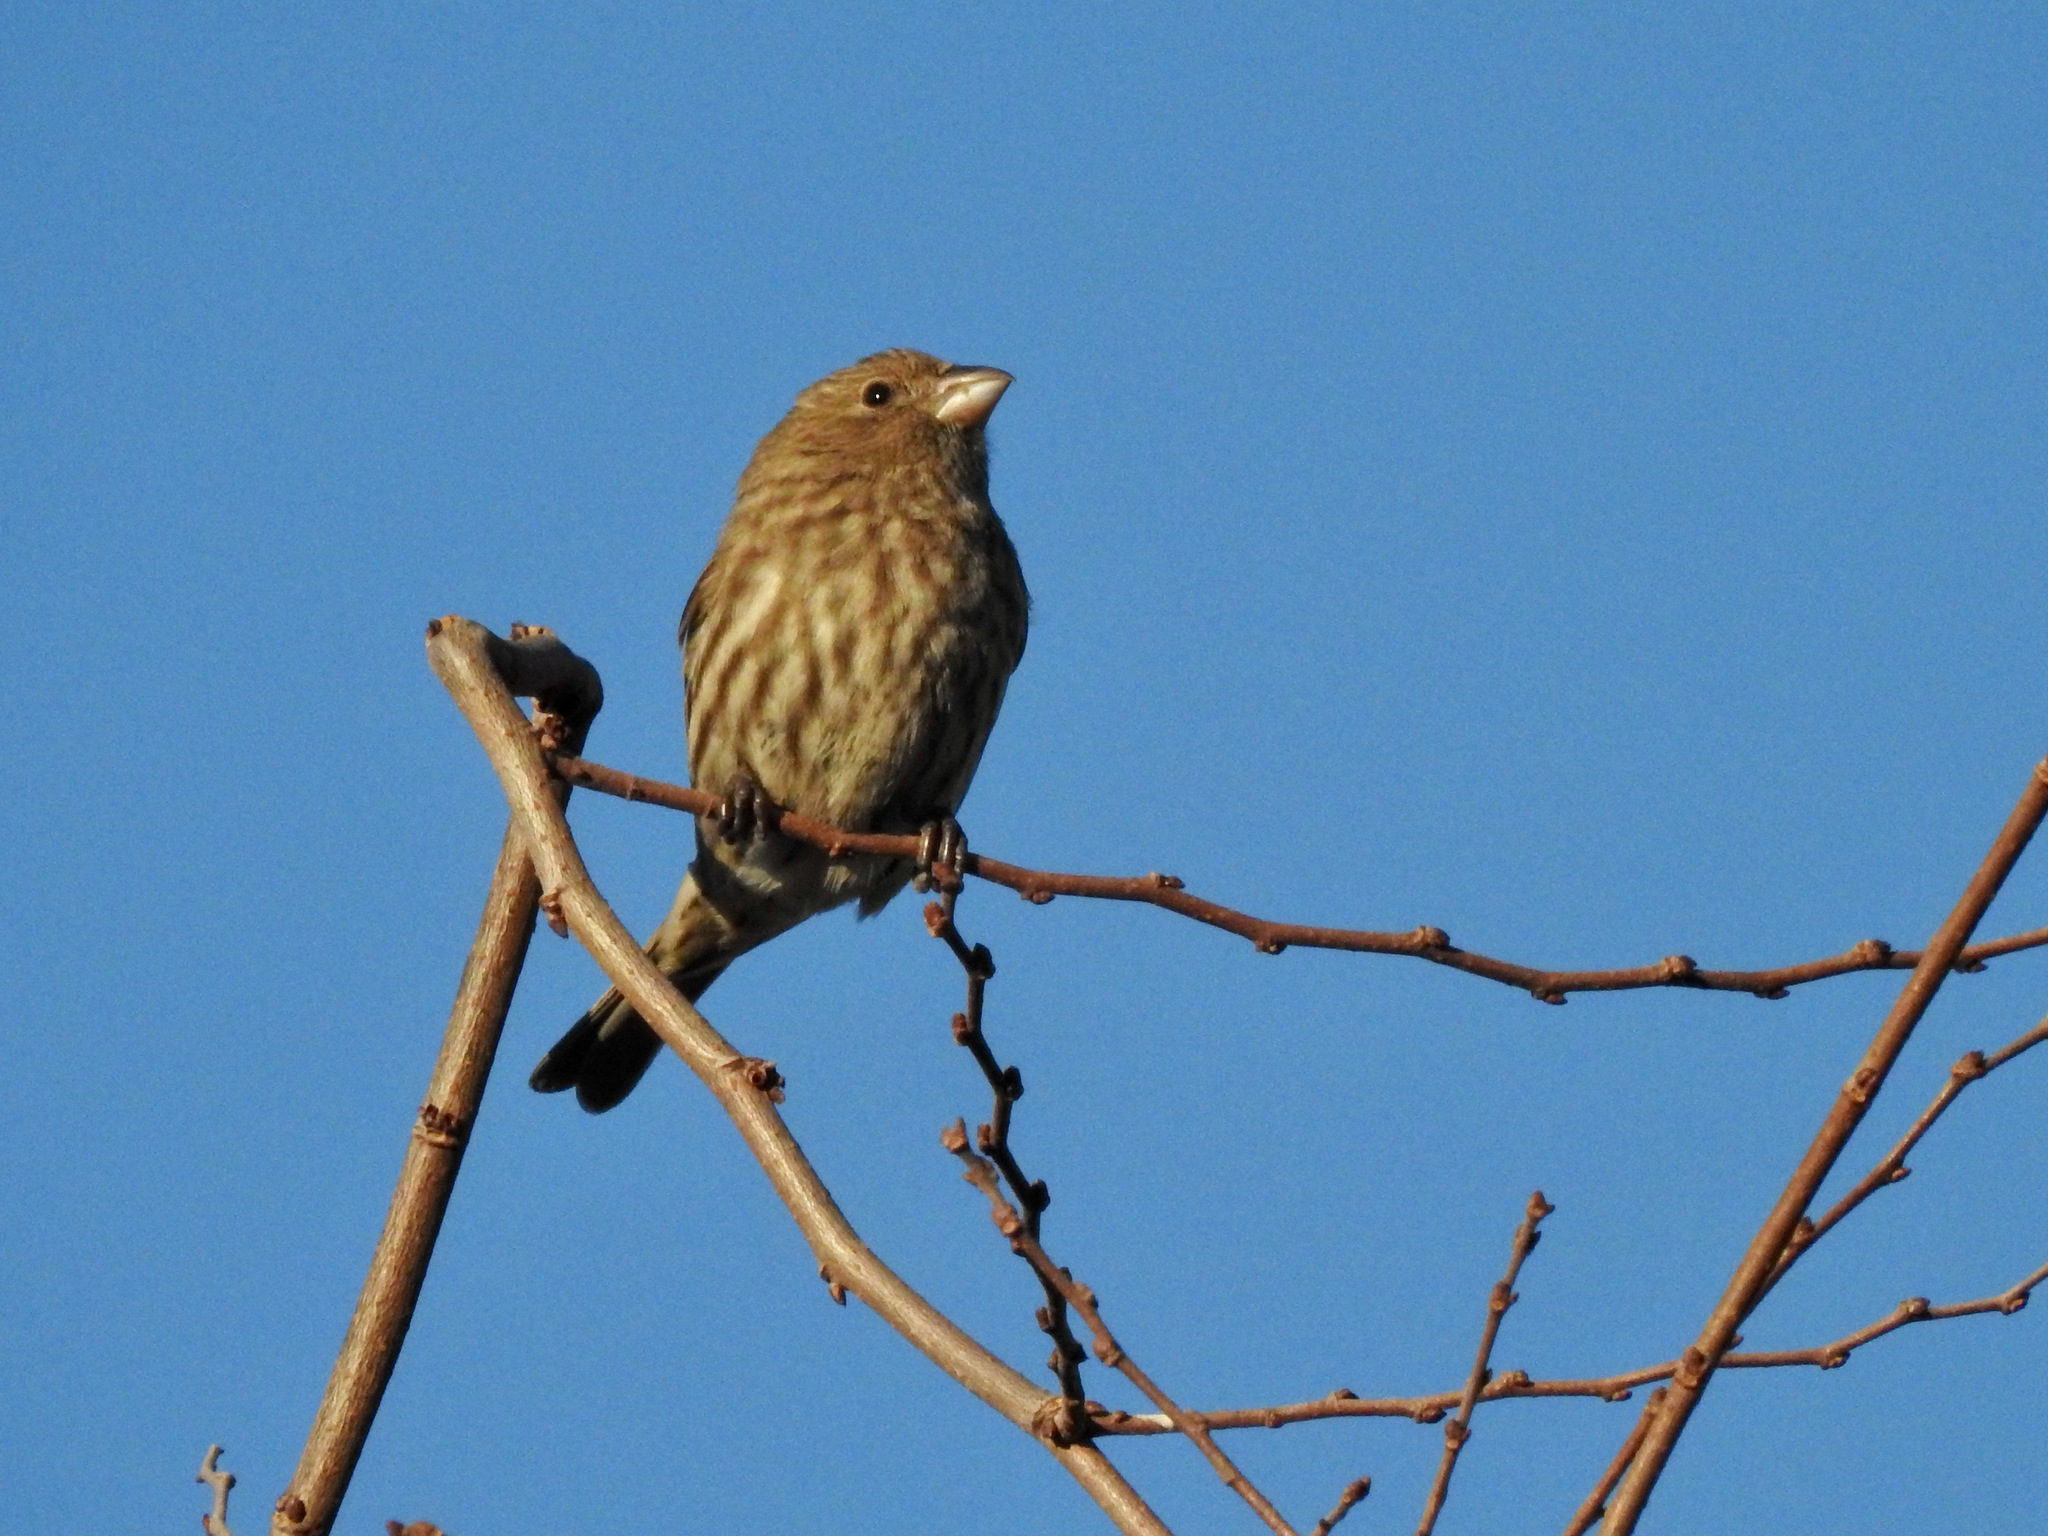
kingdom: Animalia
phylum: Chordata
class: Aves
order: Passeriformes
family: Fringillidae
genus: Haemorhous
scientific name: Haemorhous mexicanus
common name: House finch
